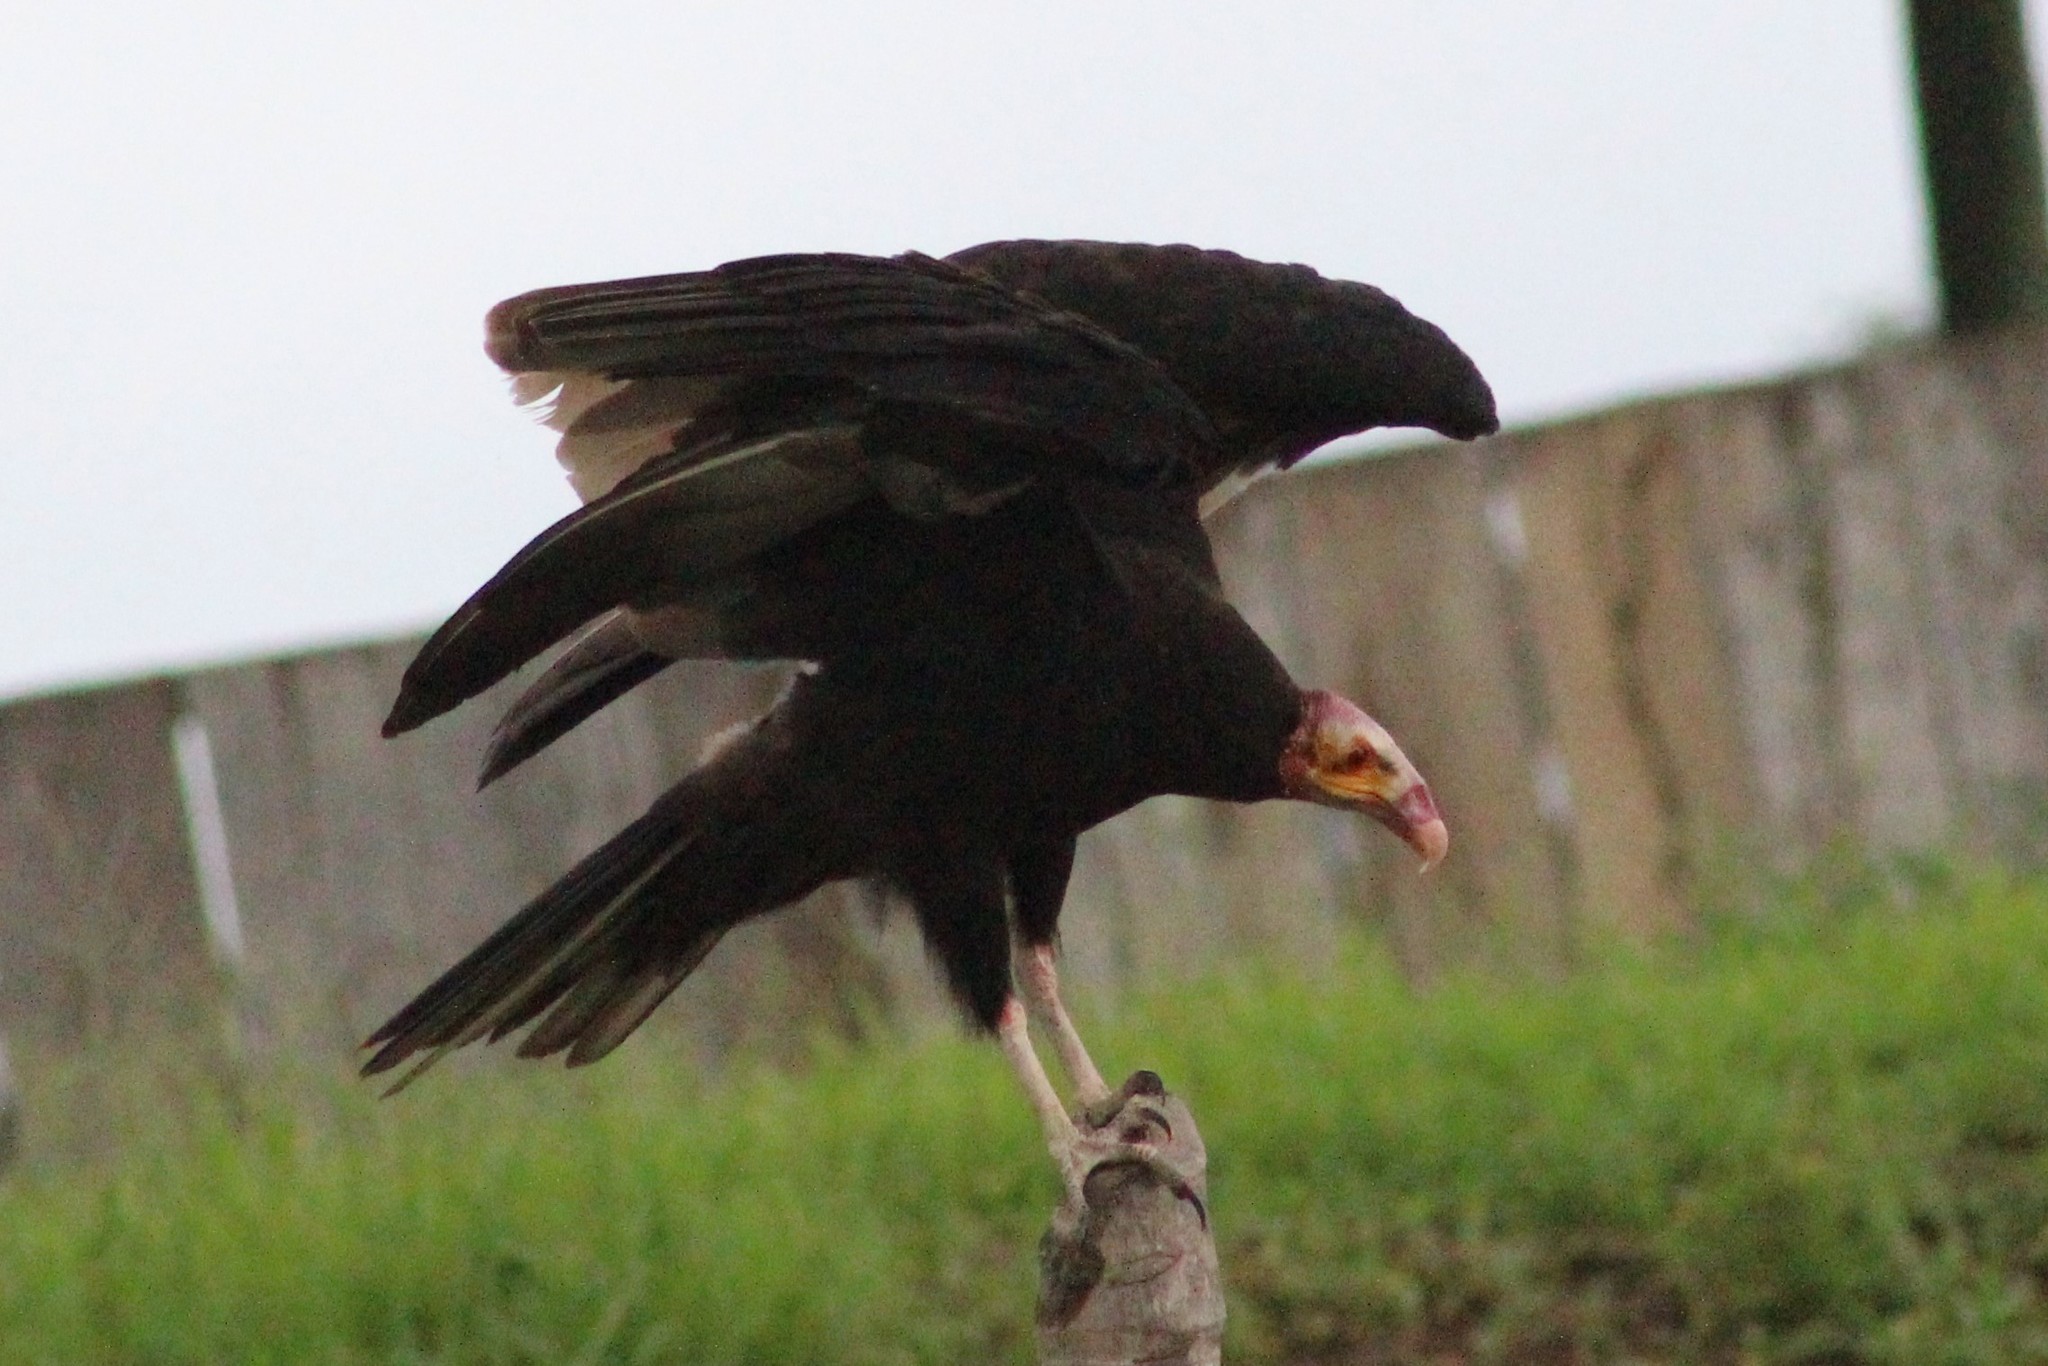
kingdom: Animalia
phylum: Chordata
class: Aves
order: Accipitriformes
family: Cathartidae
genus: Cathartes
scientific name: Cathartes burrovianus
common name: Lesser yellow-headed vulture
